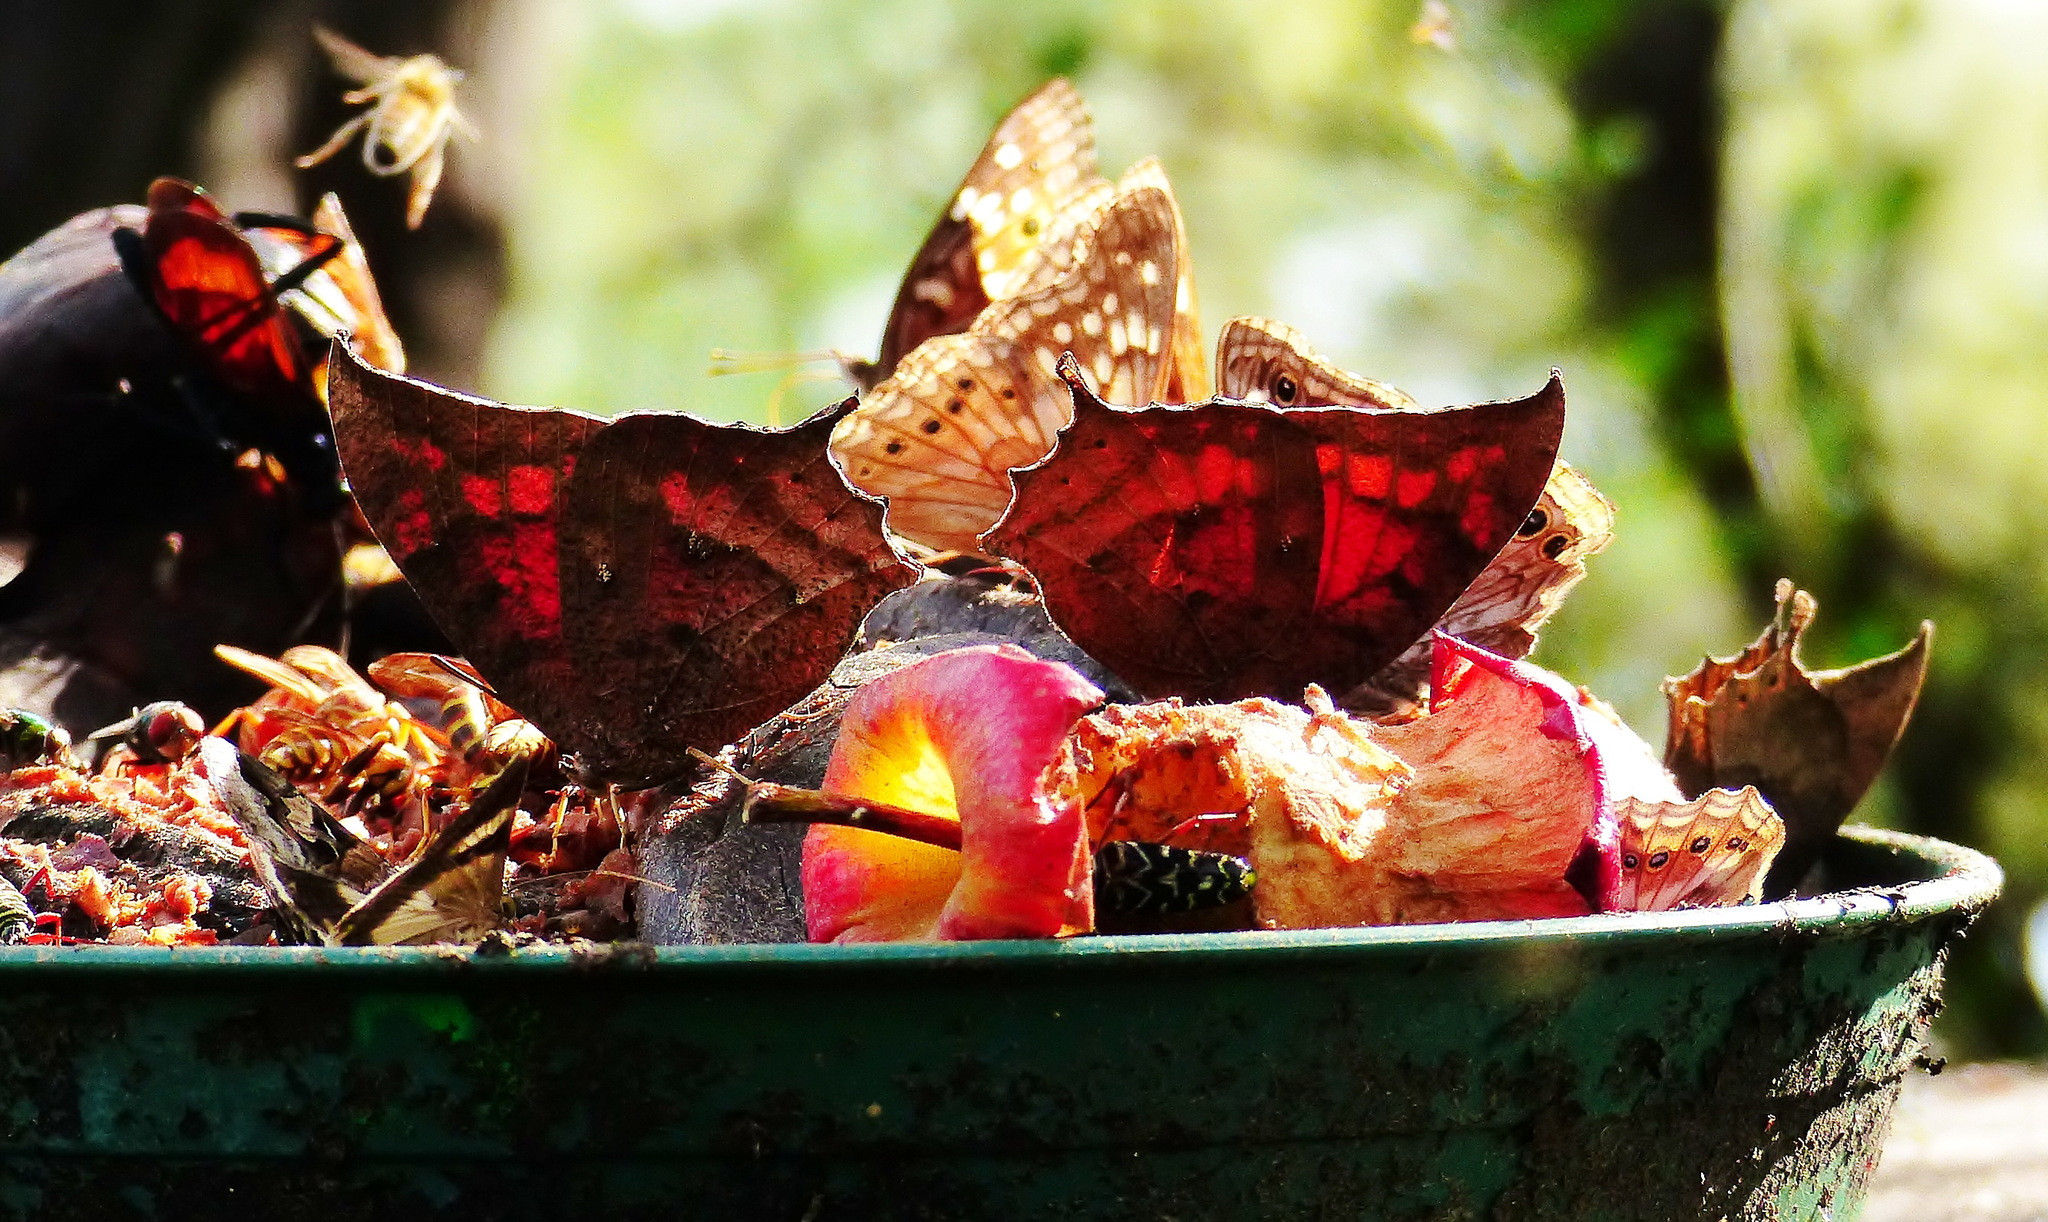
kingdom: Animalia
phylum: Arthropoda
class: Insecta
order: Lepidoptera
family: Nymphalidae
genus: Anaea
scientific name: Anaea aidea
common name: Tropical leafwing
